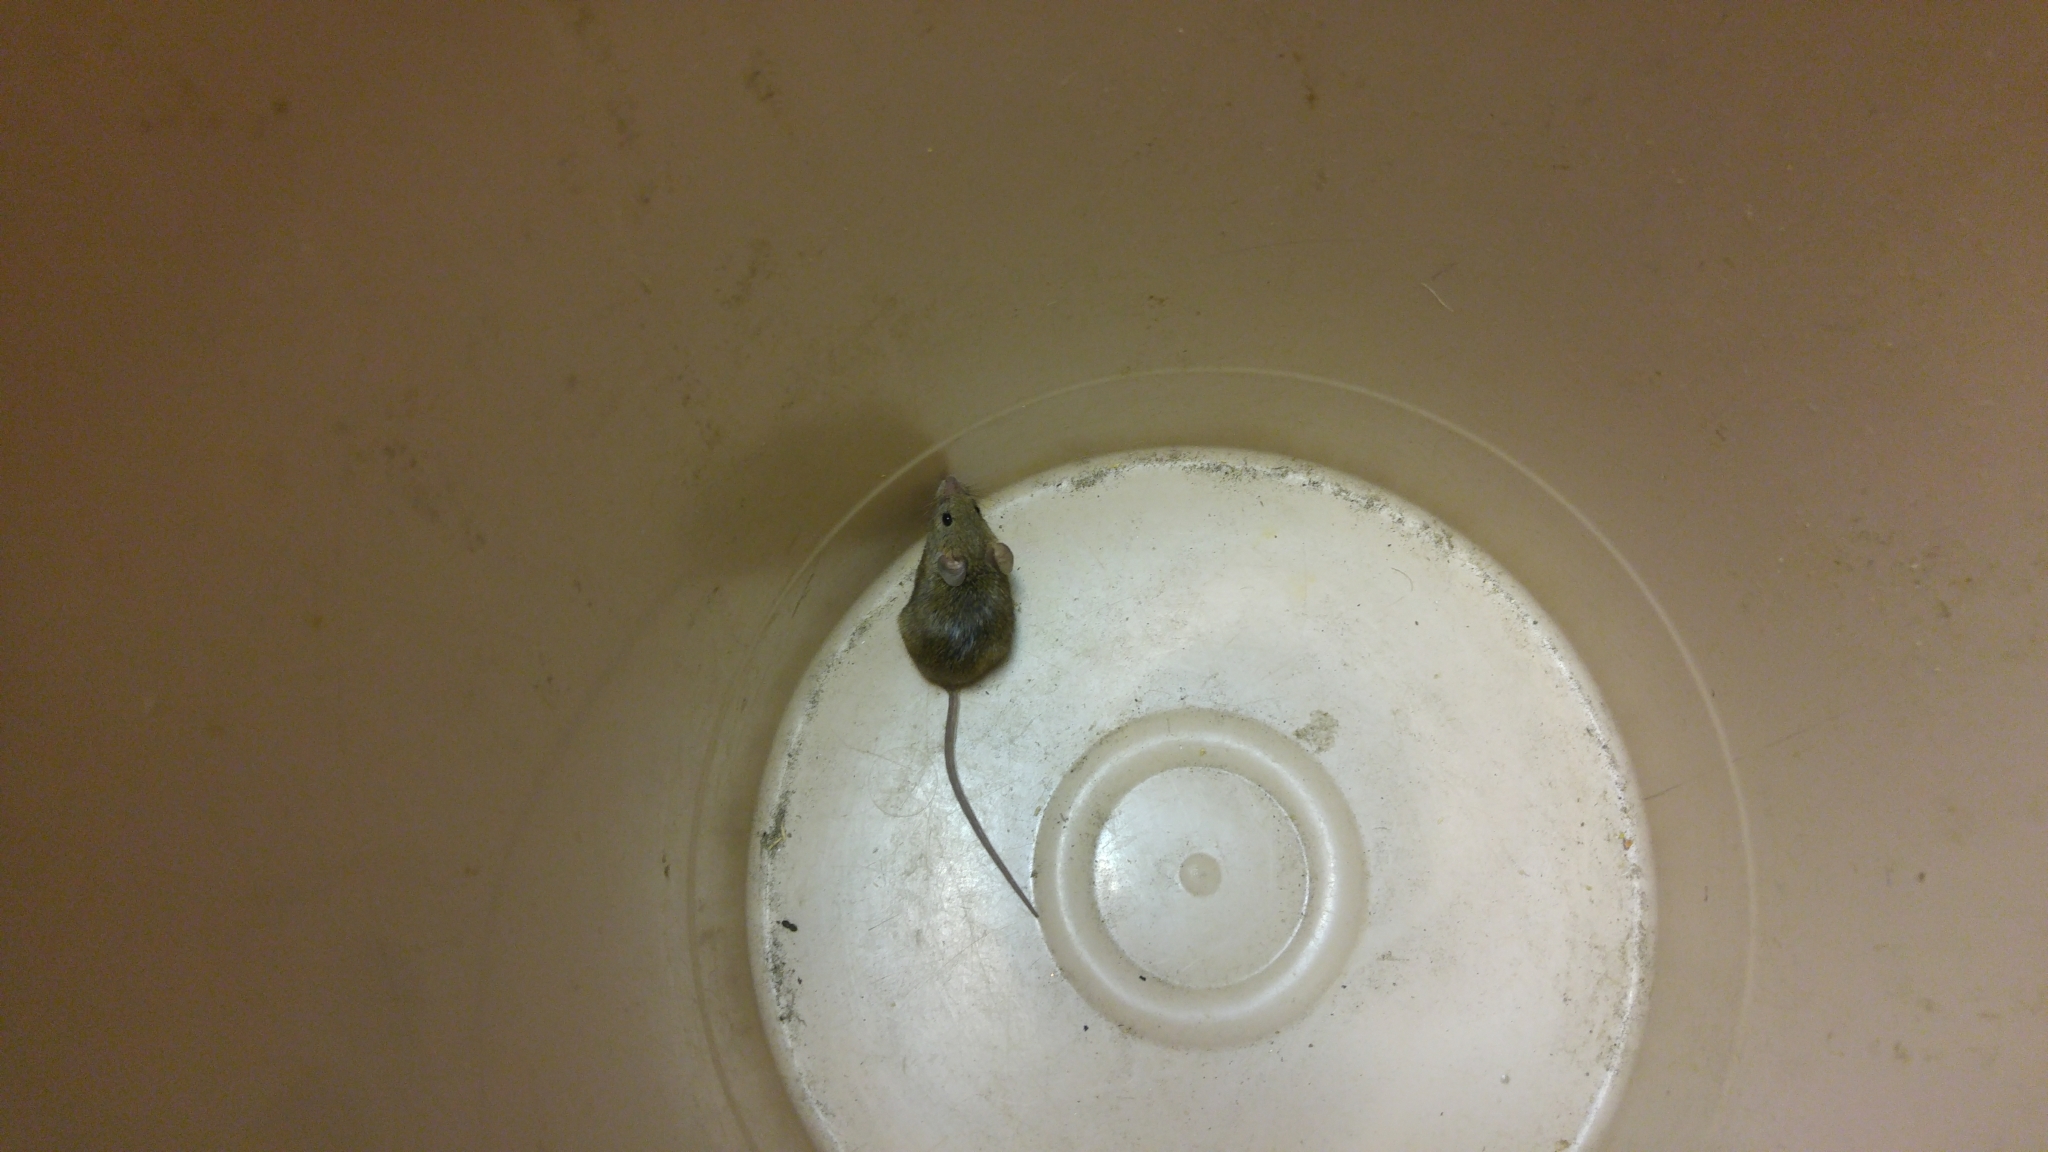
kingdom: Animalia
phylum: Chordata
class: Mammalia
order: Rodentia
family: Muridae
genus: Mus
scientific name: Mus musculus
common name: House mouse
